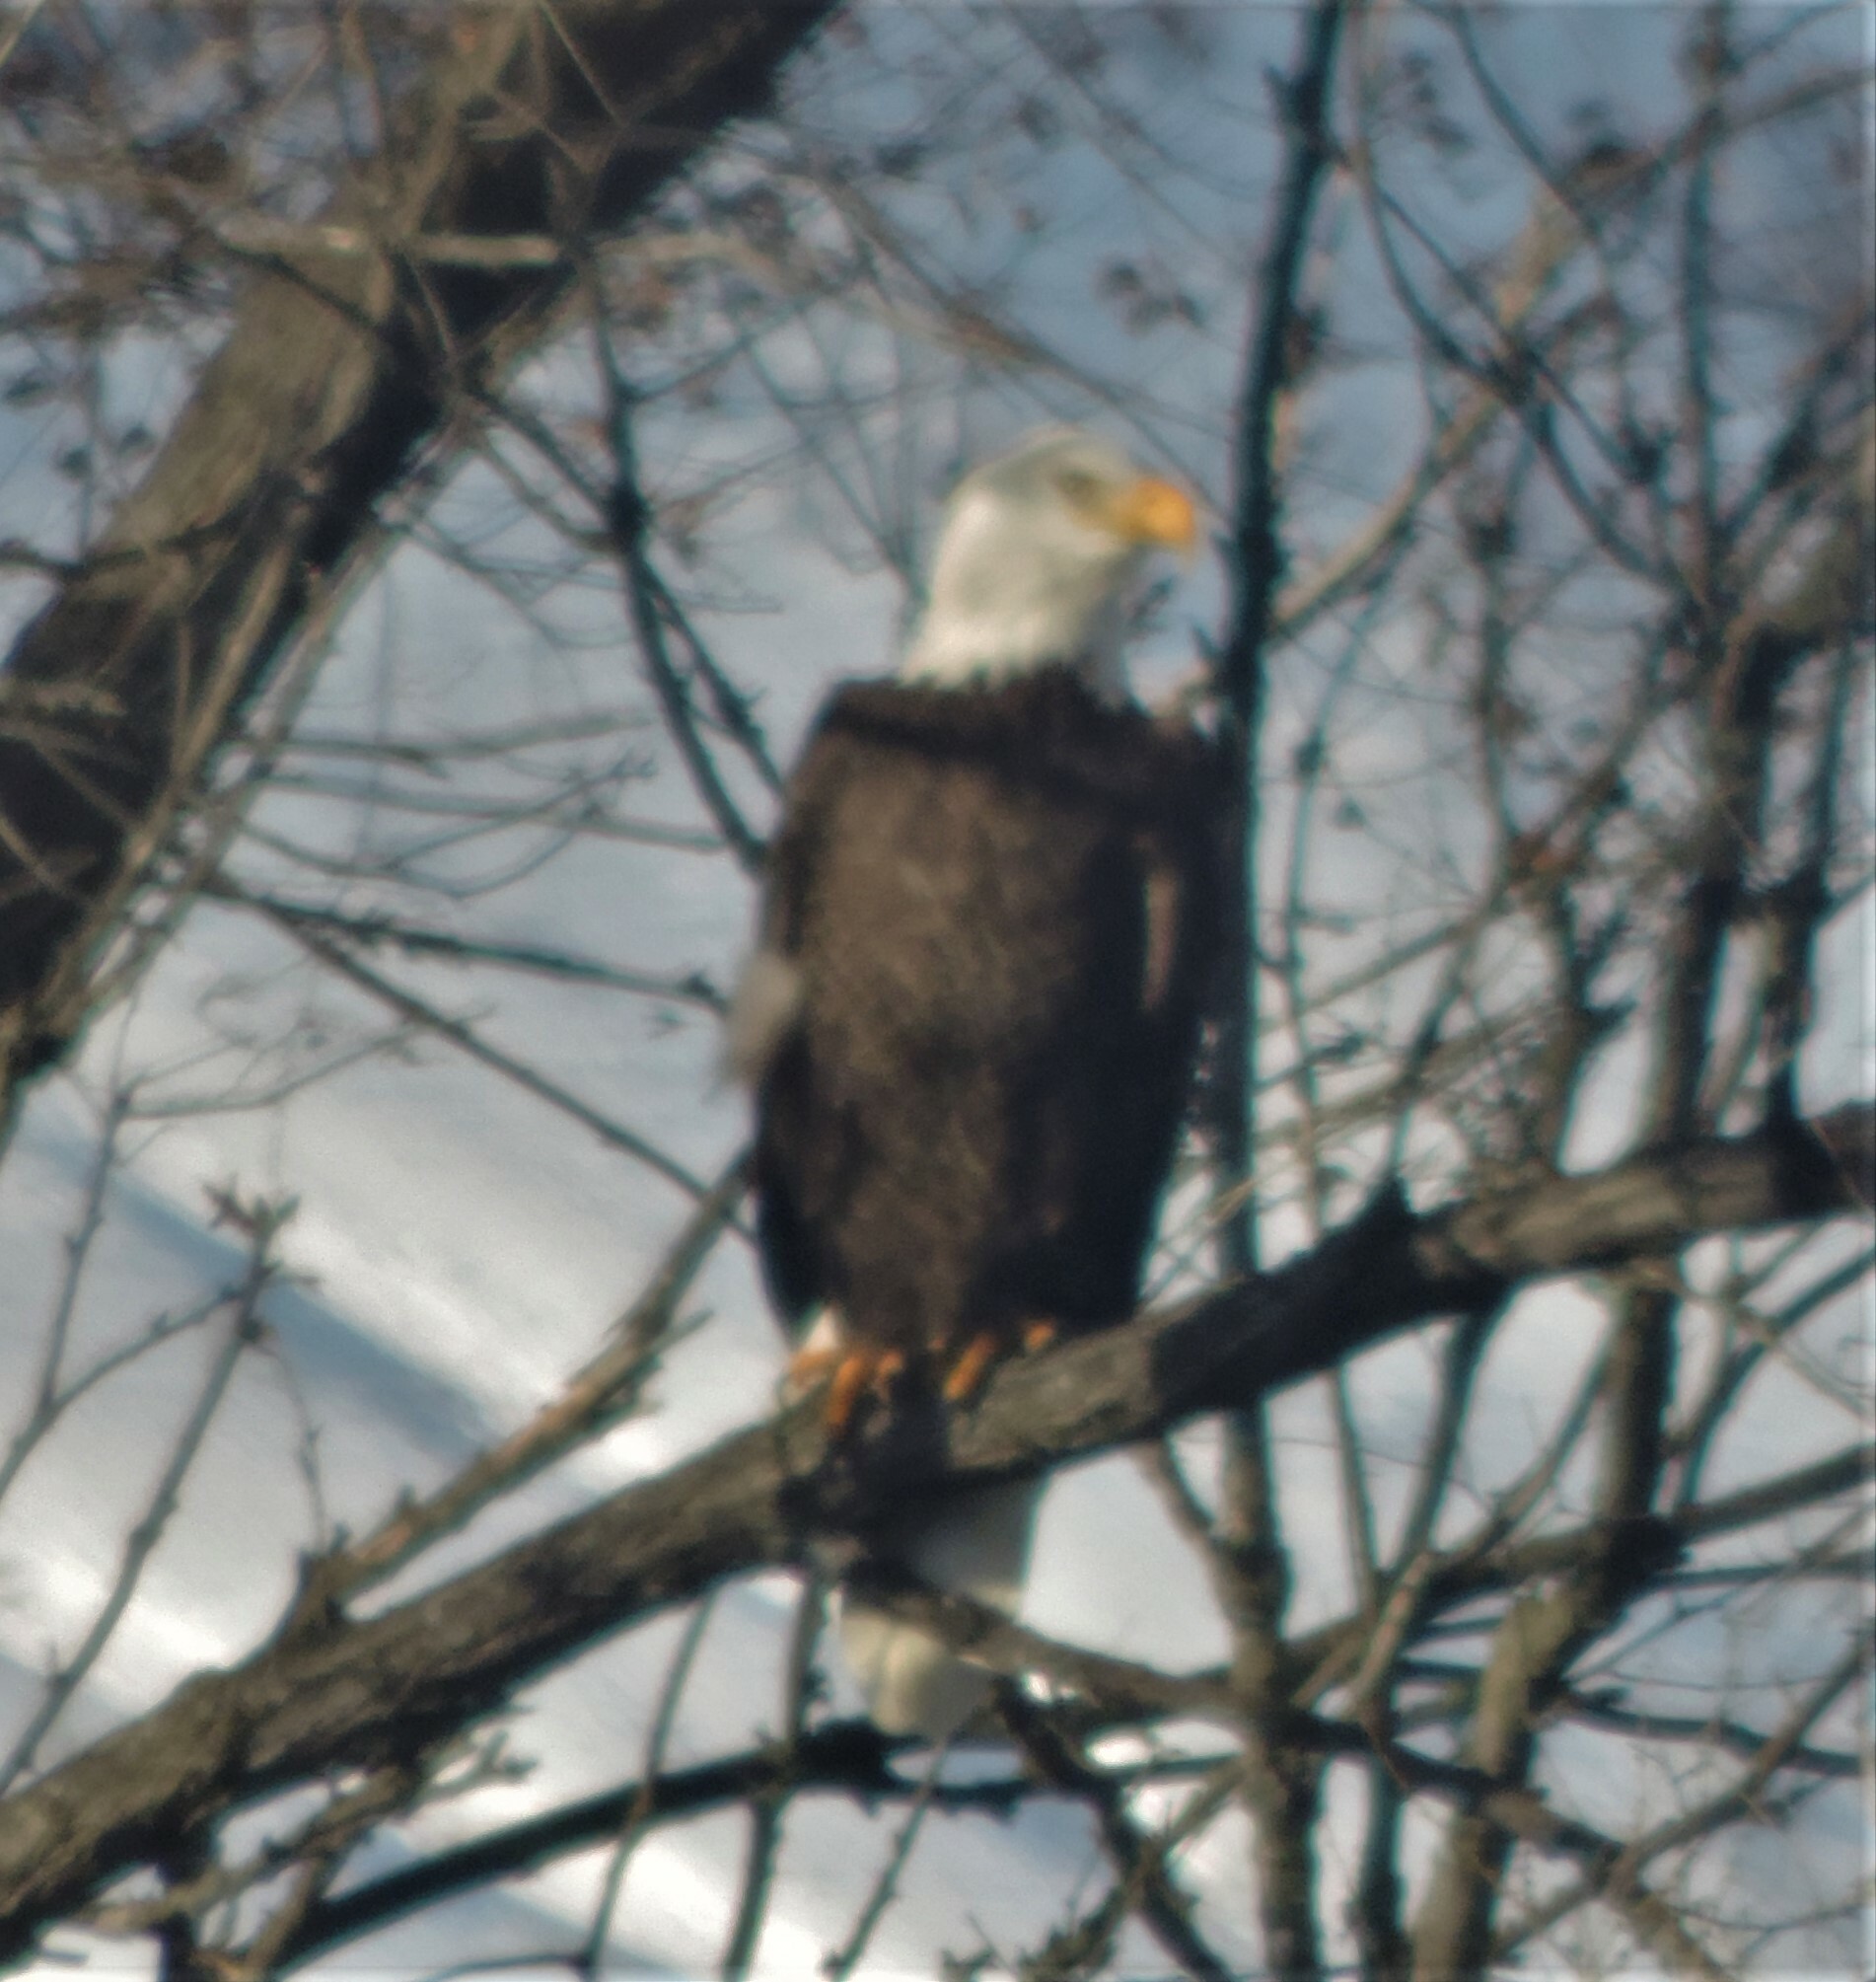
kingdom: Animalia
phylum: Chordata
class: Aves
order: Accipitriformes
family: Accipitridae
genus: Haliaeetus
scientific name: Haliaeetus leucocephalus
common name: Bald eagle
